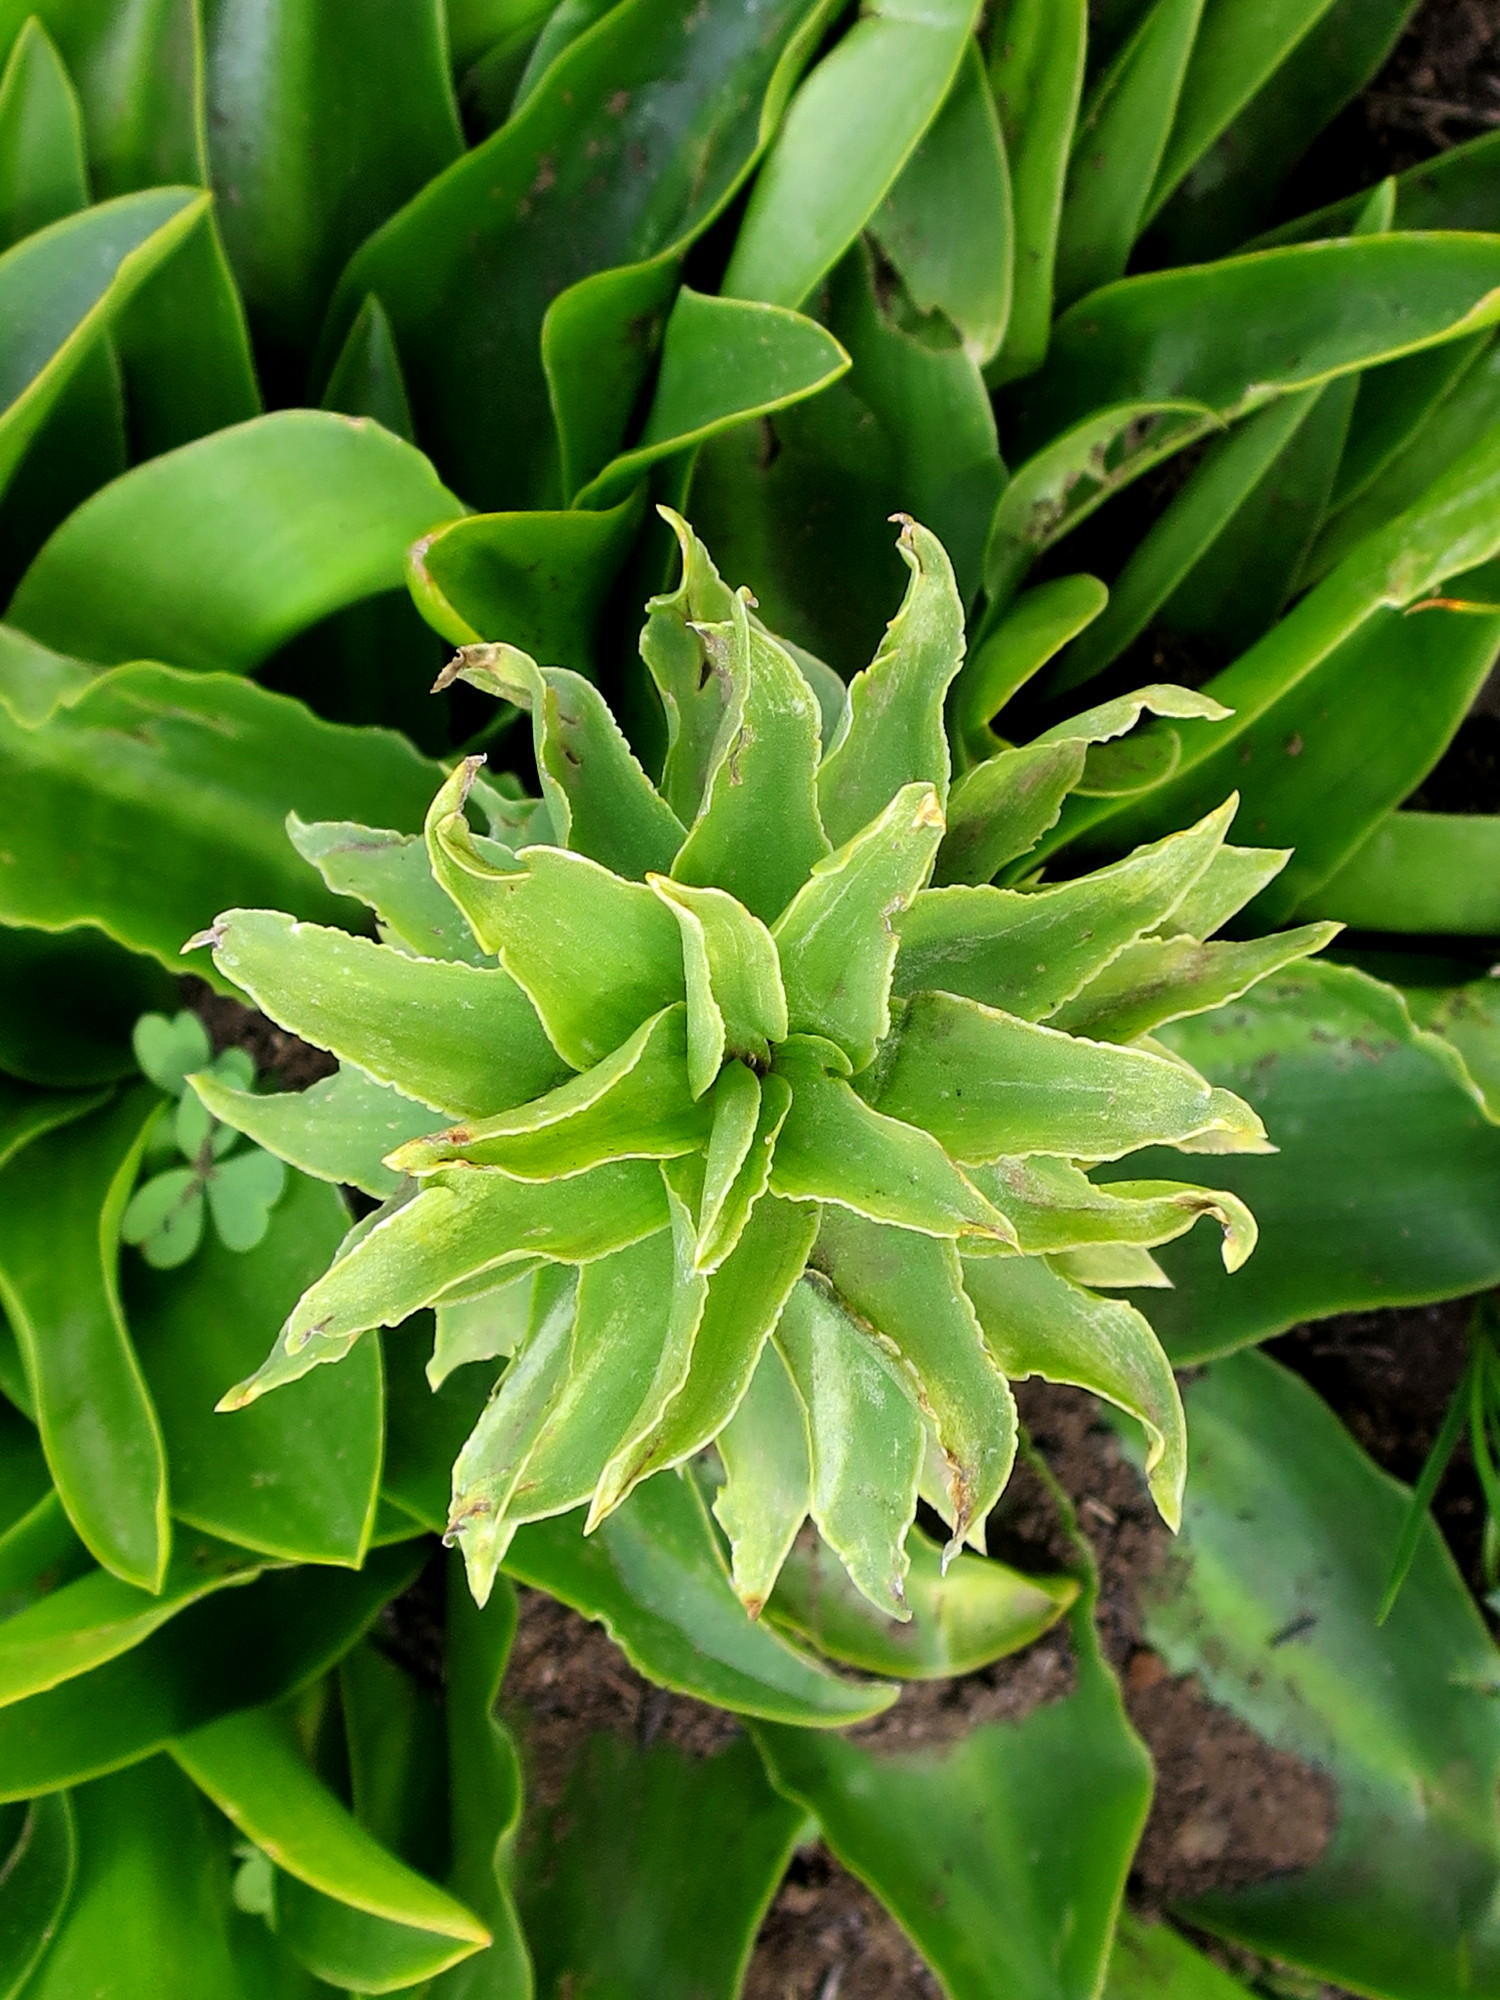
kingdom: Plantae
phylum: Tracheophyta
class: Liliopsida
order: Asparagales
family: Asparagaceae
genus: Eucomis
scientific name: Eucomis autumnalis
